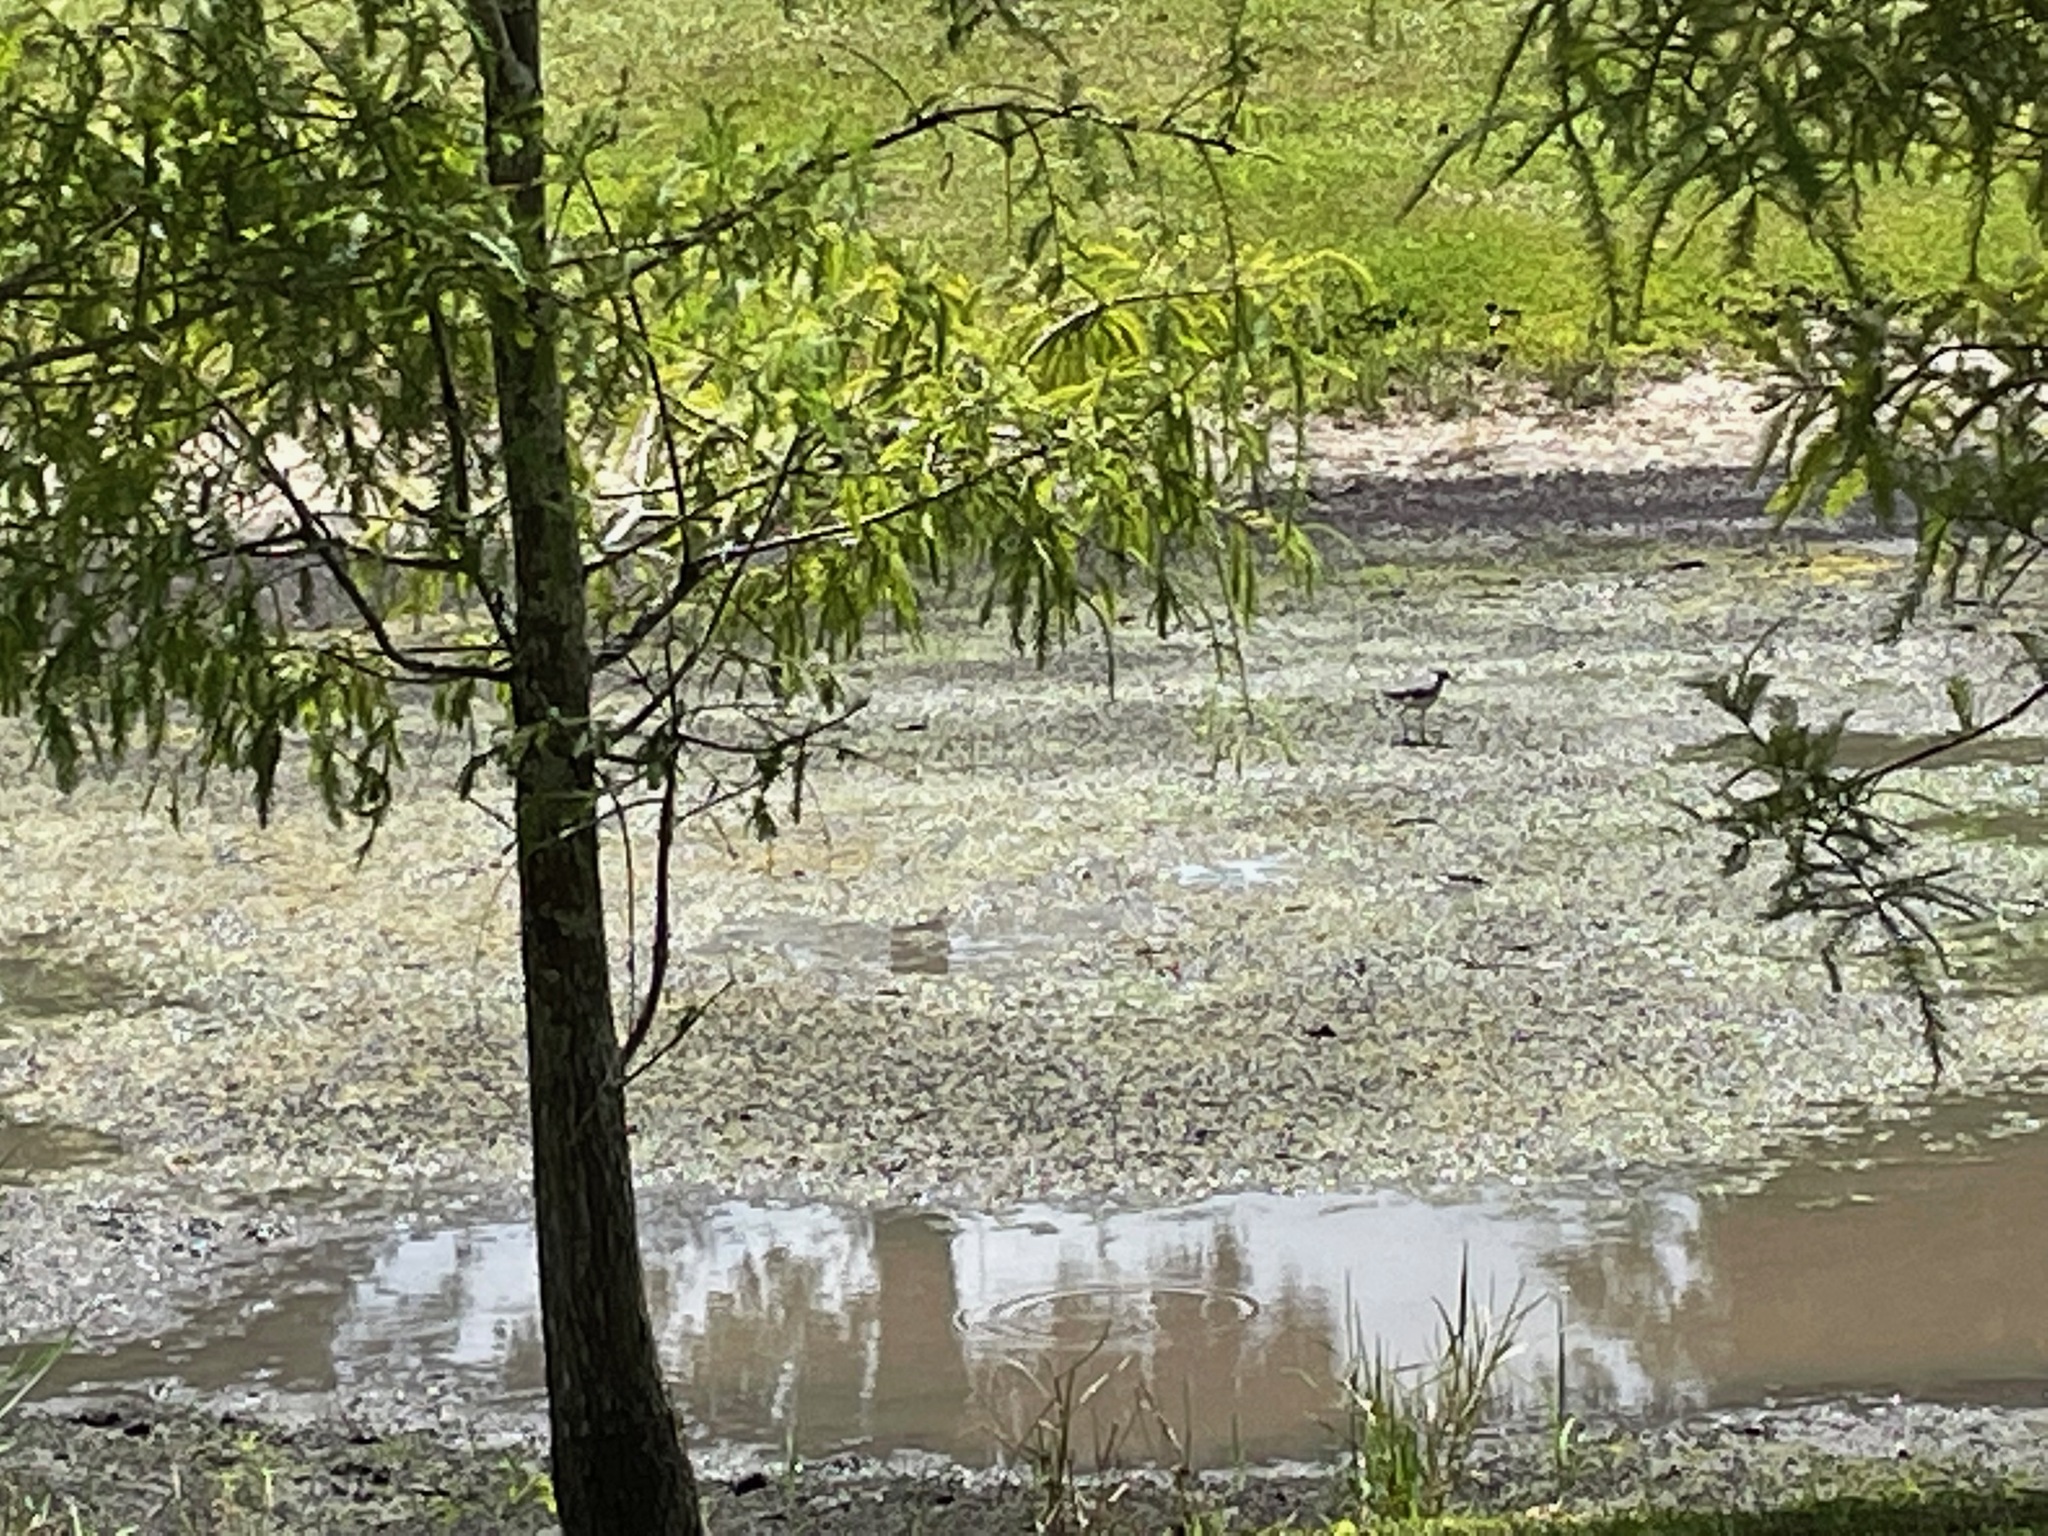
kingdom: Animalia
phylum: Chordata
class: Aves
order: Charadriiformes
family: Recurvirostridae
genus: Himantopus
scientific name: Himantopus mexicanus
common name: Black-necked stilt
